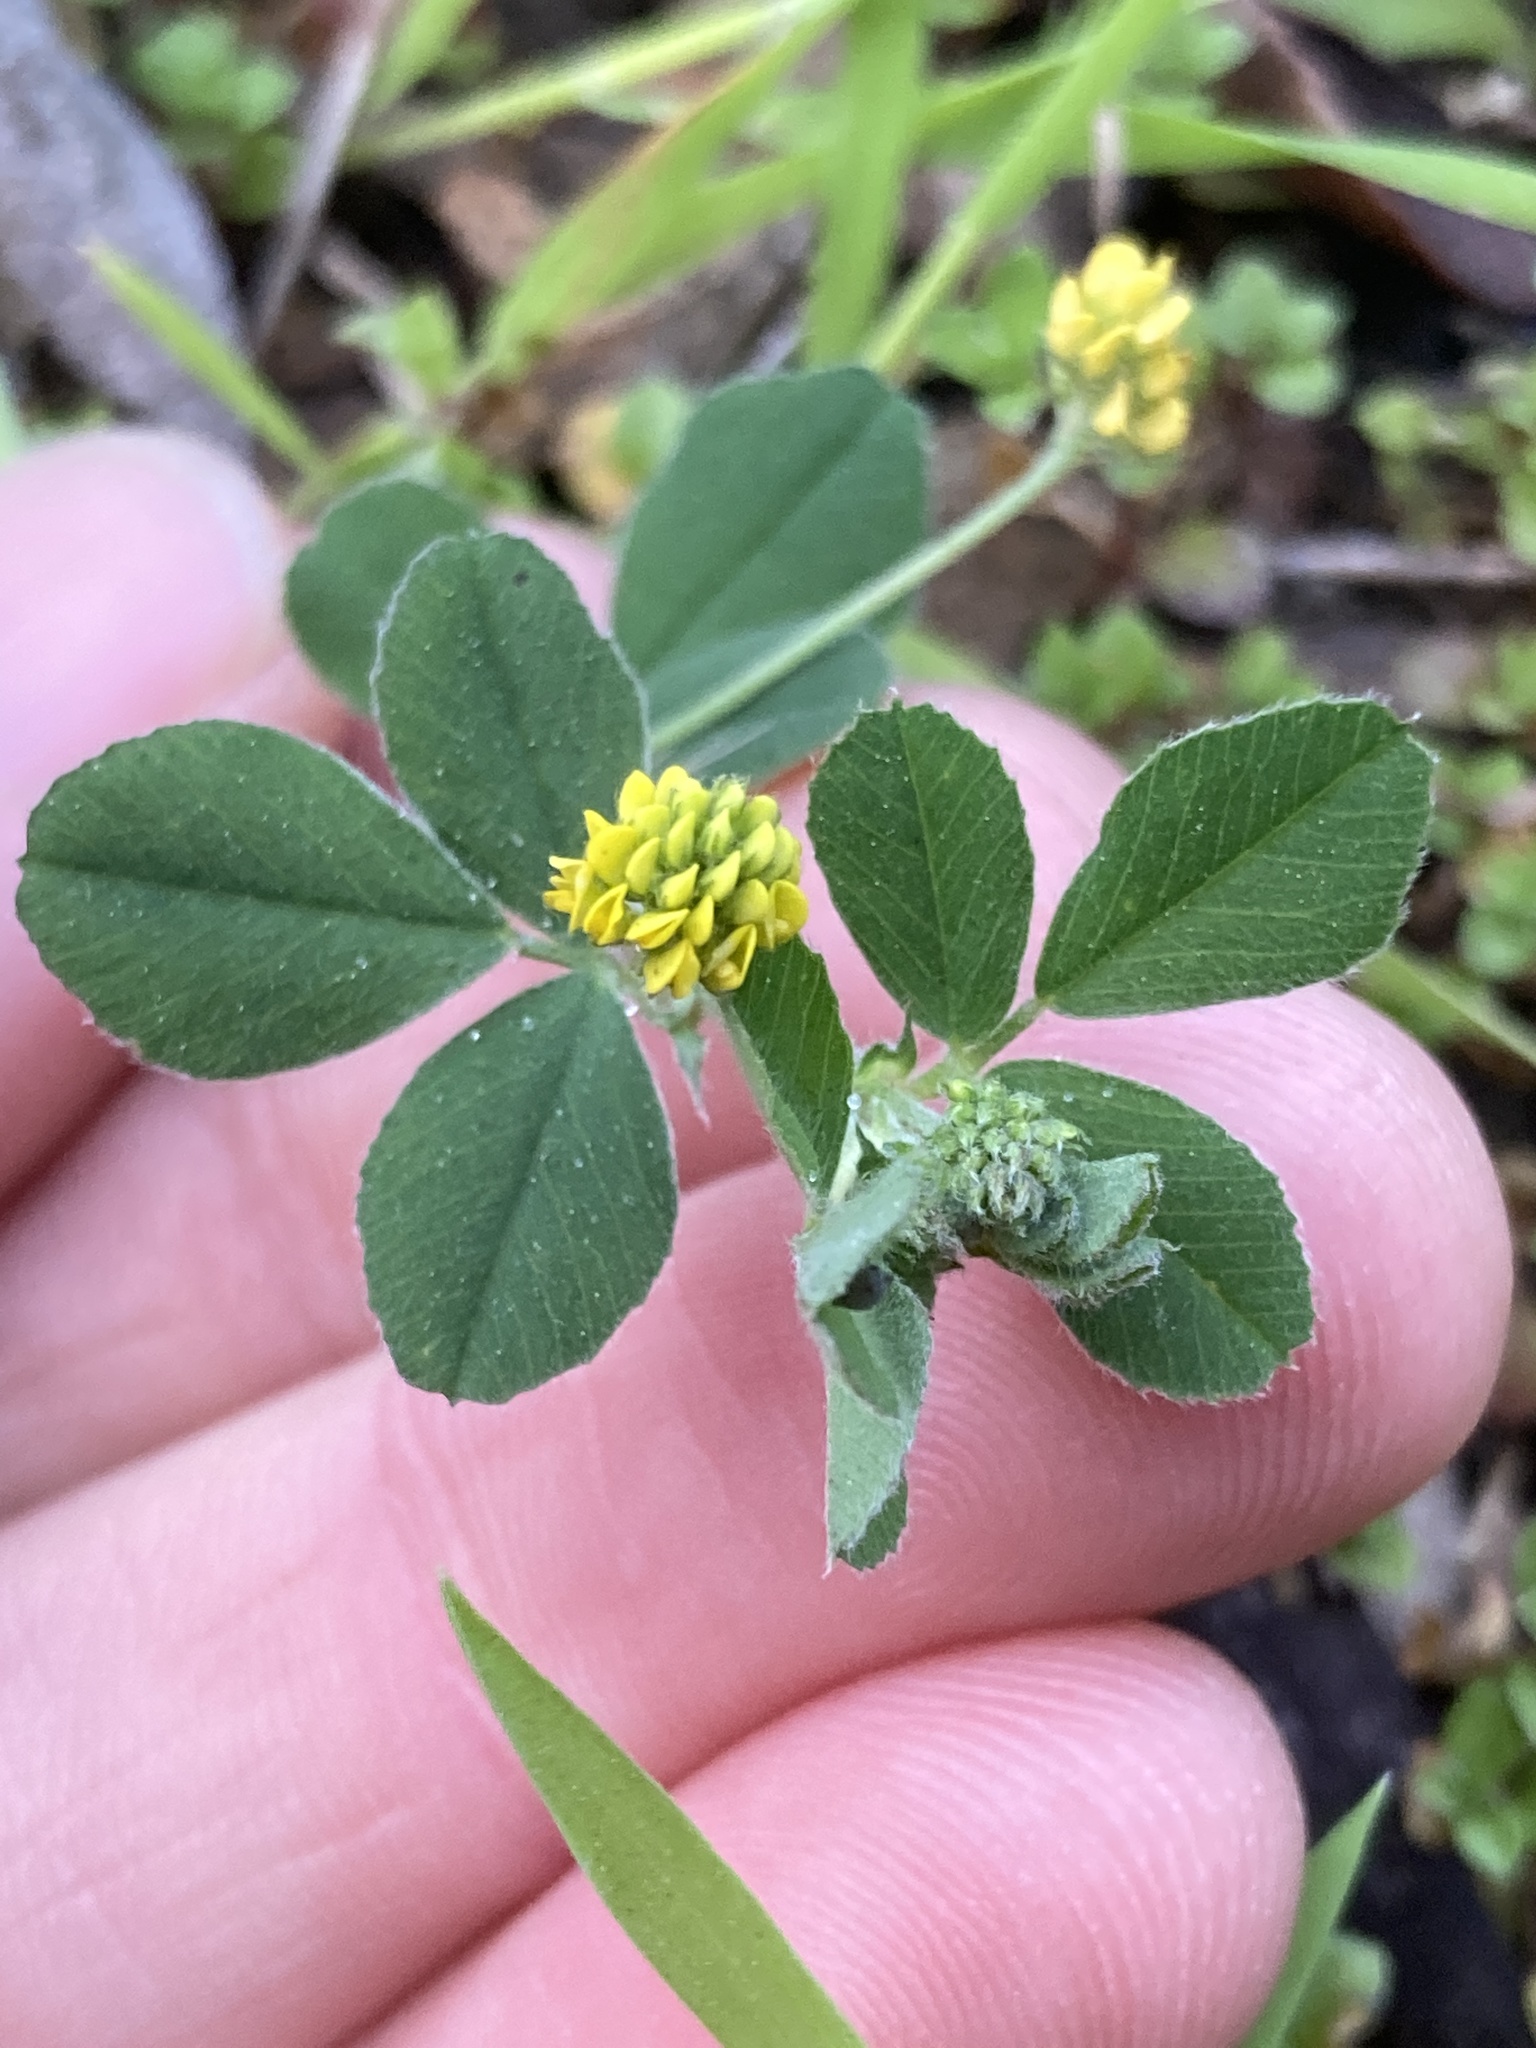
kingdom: Plantae
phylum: Tracheophyta
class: Magnoliopsida
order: Fabales
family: Fabaceae
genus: Medicago
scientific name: Medicago lupulina
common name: Black medick
